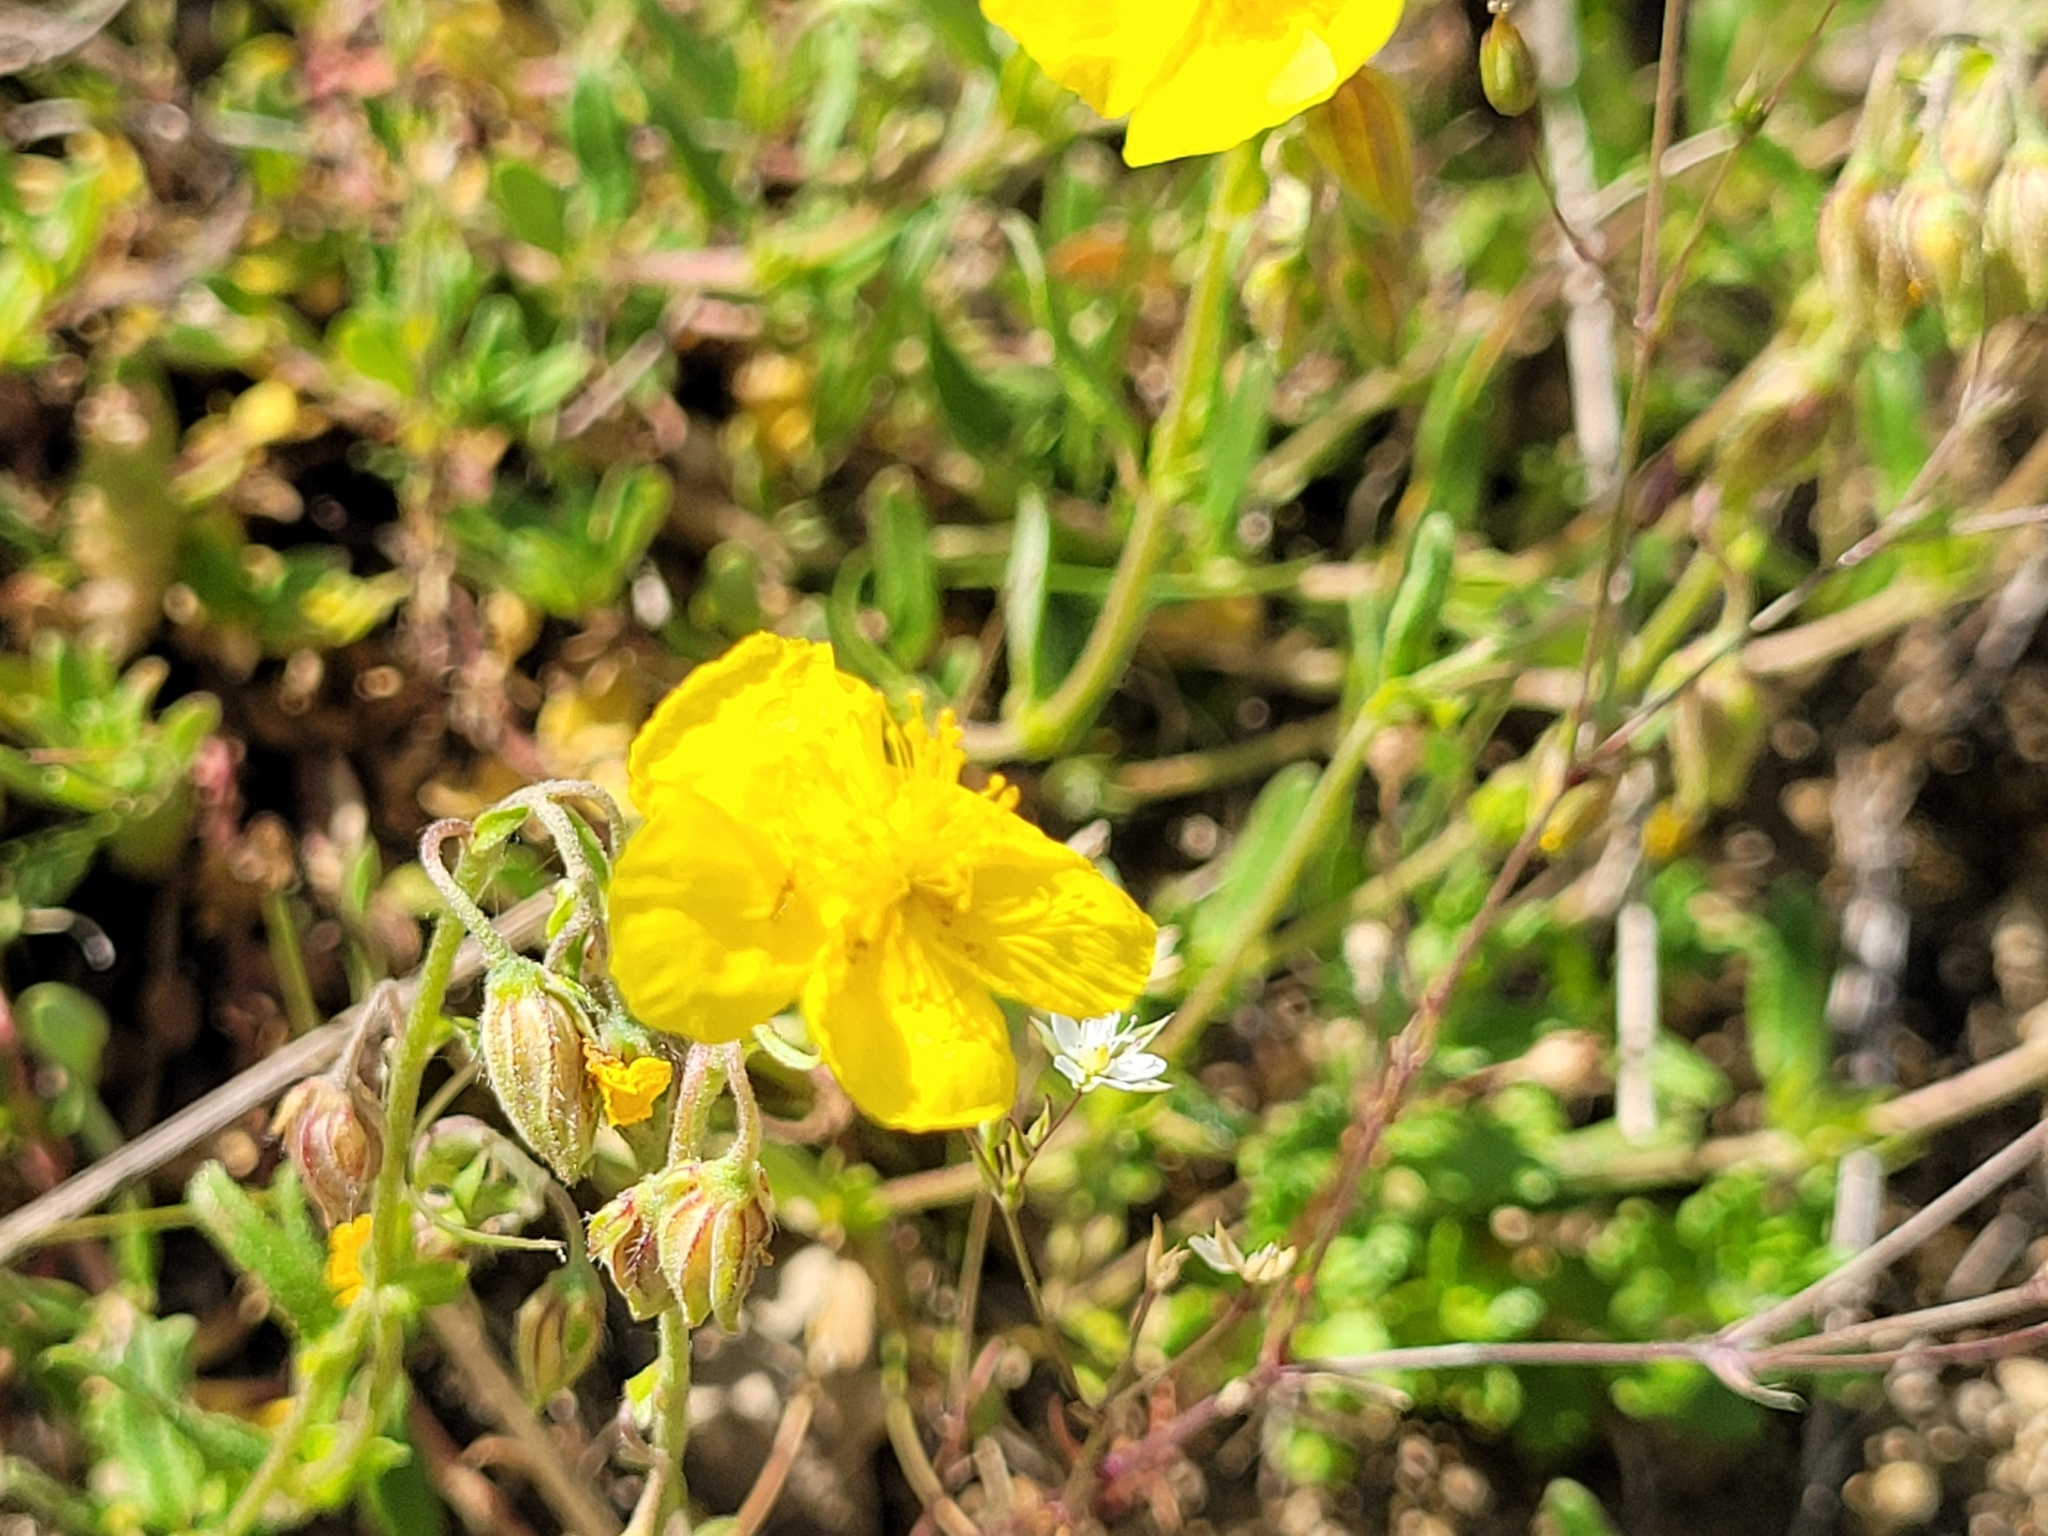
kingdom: Plantae
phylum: Tracheophyta
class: Magnoliopsida
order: Malvales
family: Cistaceae
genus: Helianthemum
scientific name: Helianthemum nummularium
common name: Common rock-rose
